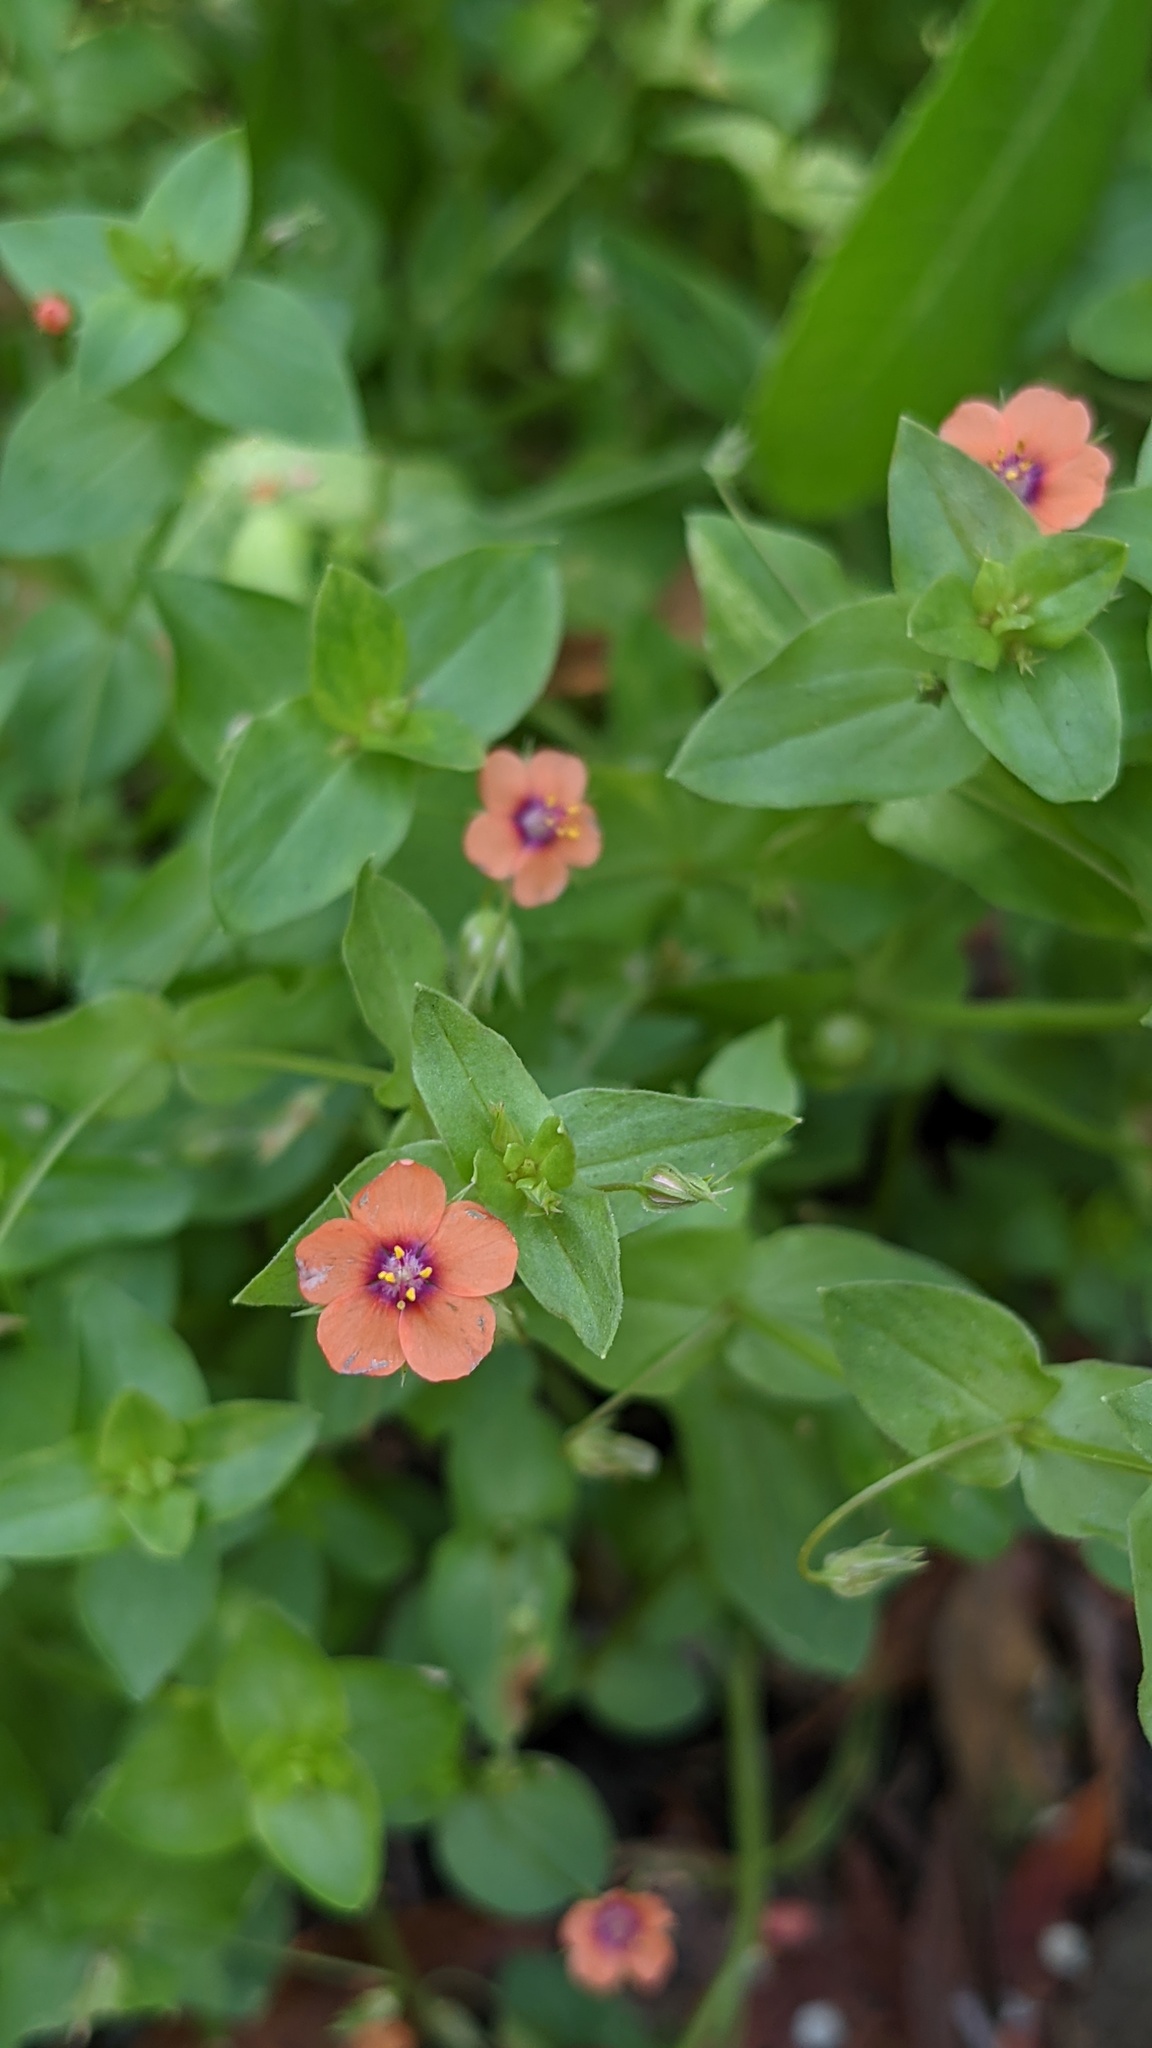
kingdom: Plantae
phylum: Tracheophyta
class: Magnoliopsida
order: Ericales
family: Primulaceae
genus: Lysimachia
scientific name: Lysimachia arvensis
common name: Scarlet pimpernel
